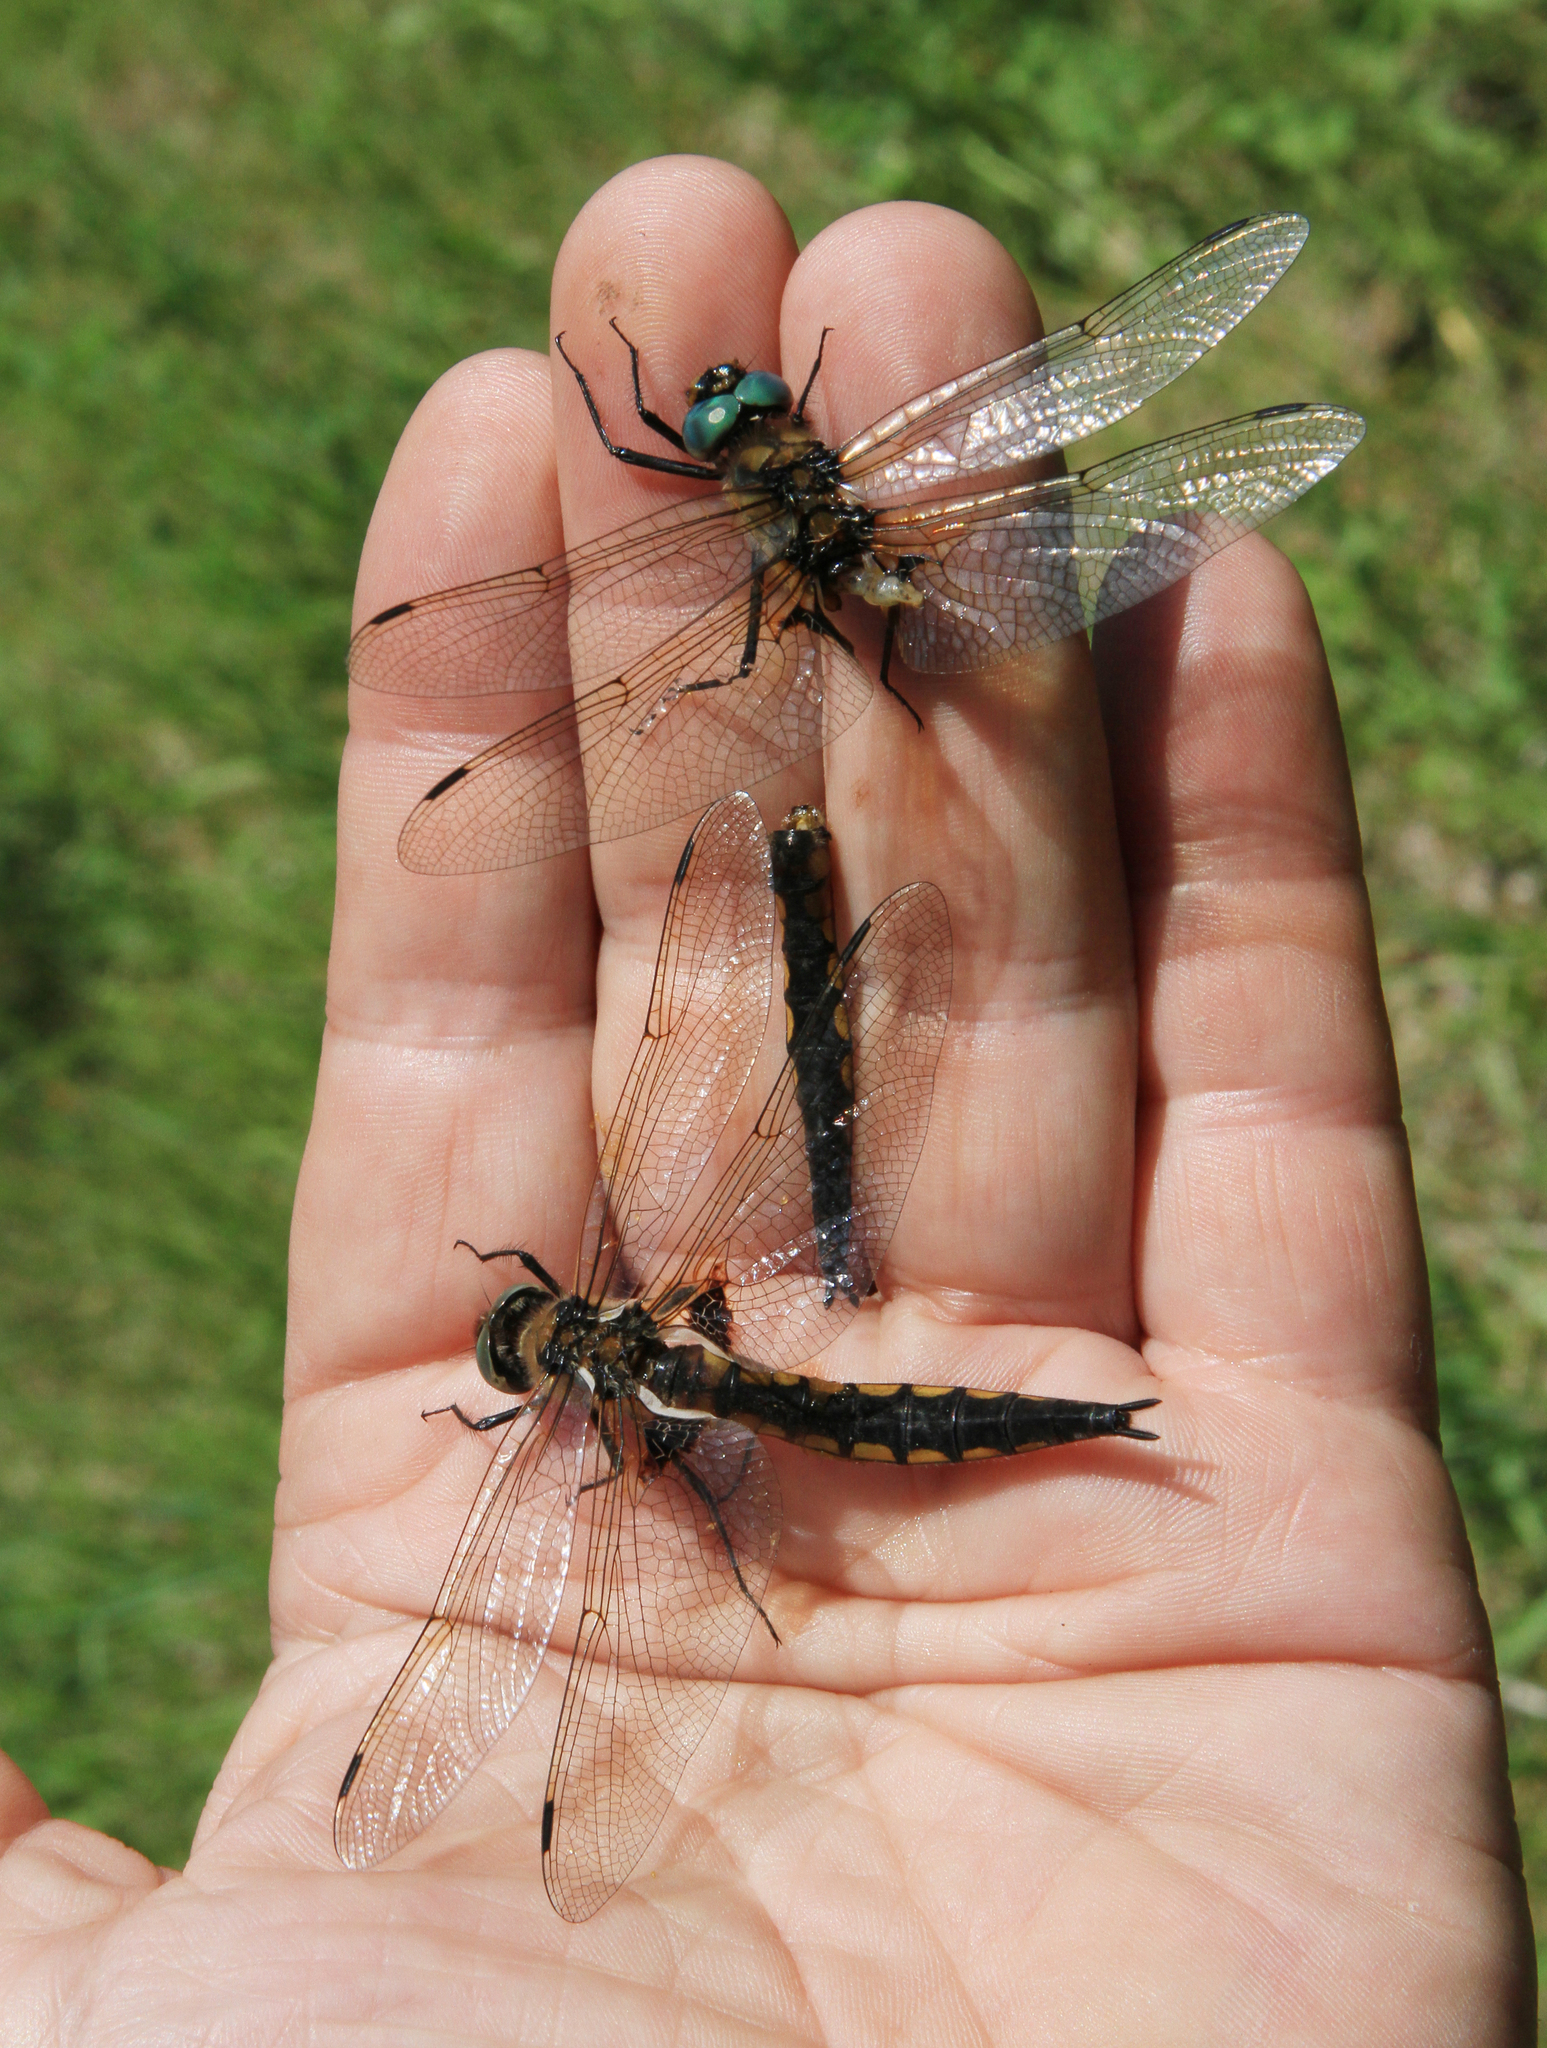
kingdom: Animalia
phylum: Arthropoda
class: Insecta
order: Odonata
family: Corduliidae
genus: Epitheca
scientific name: Epitheca bimaculata
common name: Eurasian baskettail
